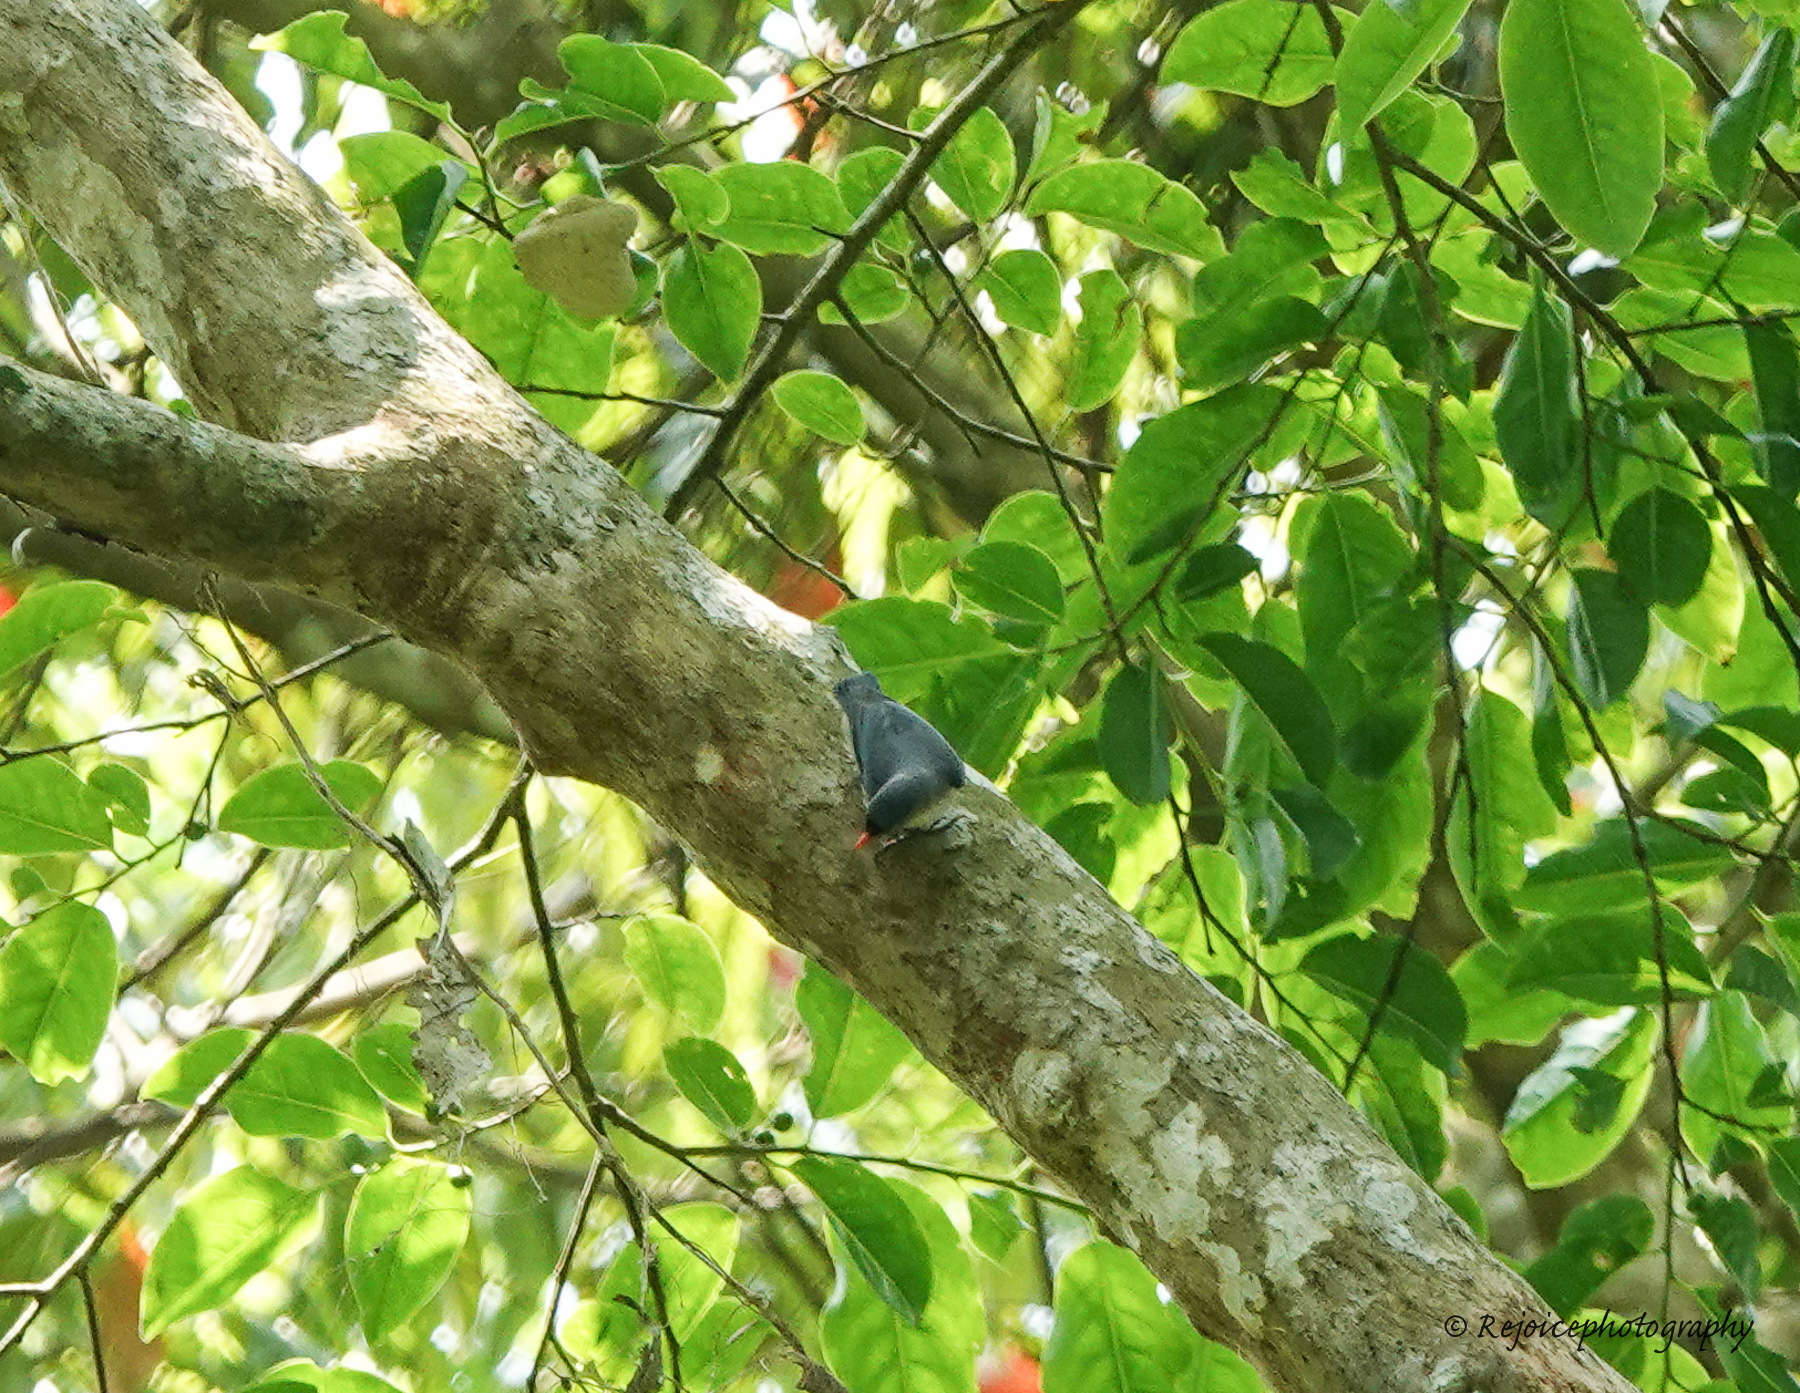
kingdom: Animalia
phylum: Chordata
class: Aves
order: Passeriformes
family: Sittidae
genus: Sitta
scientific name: Sitta frontalis
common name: Velvet-fronted nuthatch
